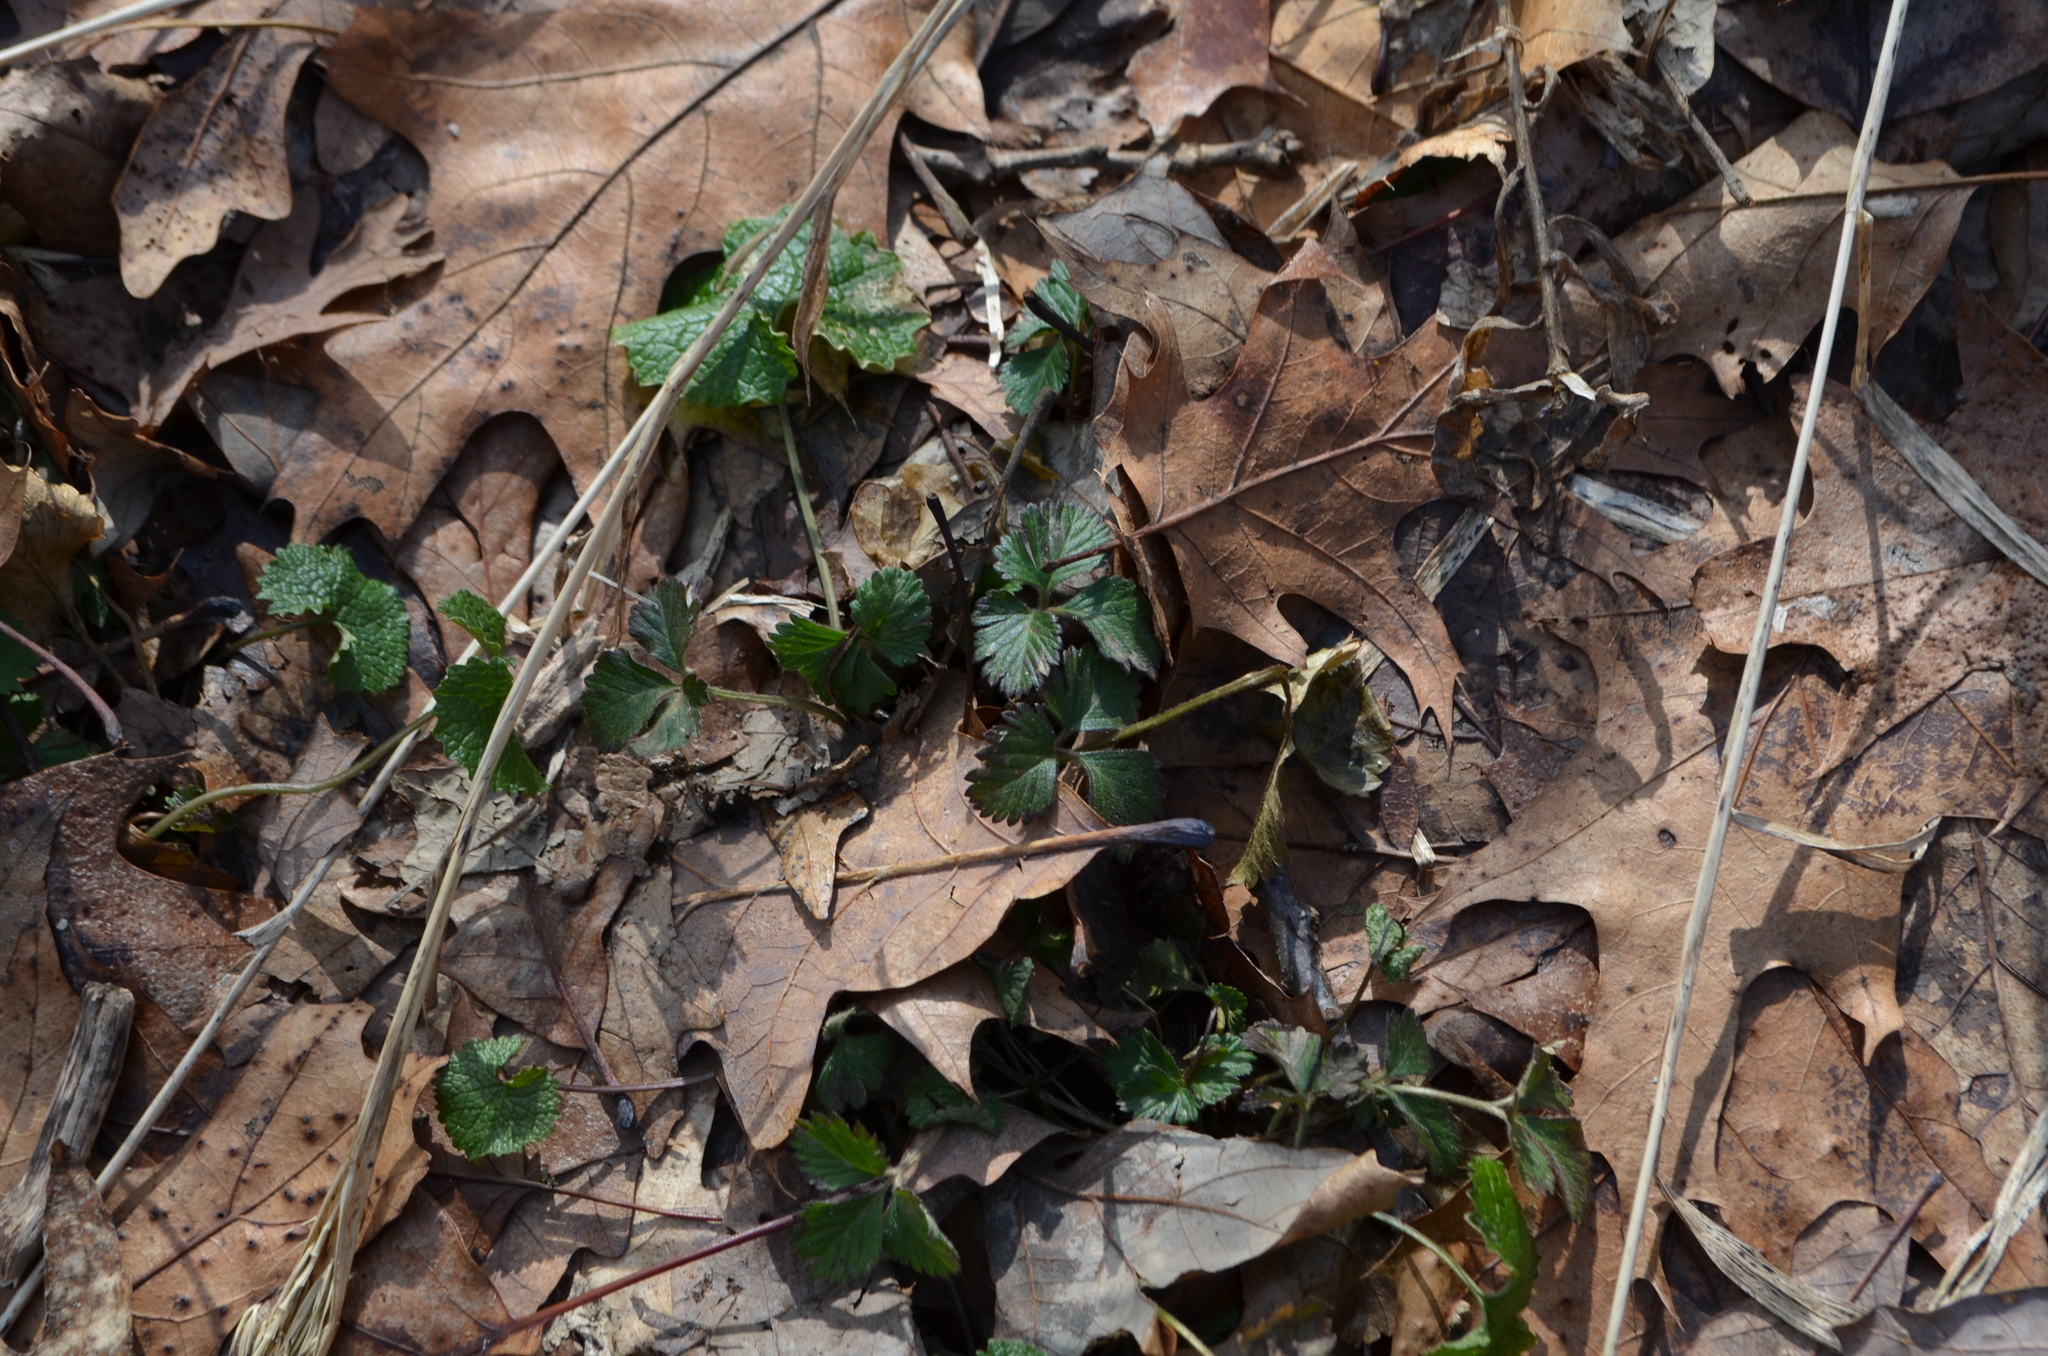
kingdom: Plantae
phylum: Tracheophyta
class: Magnoliopsida
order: Rosales
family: Rosaceae
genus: Fragaria
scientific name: Fragaria virginiana
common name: Thickleaved wild strawberry
